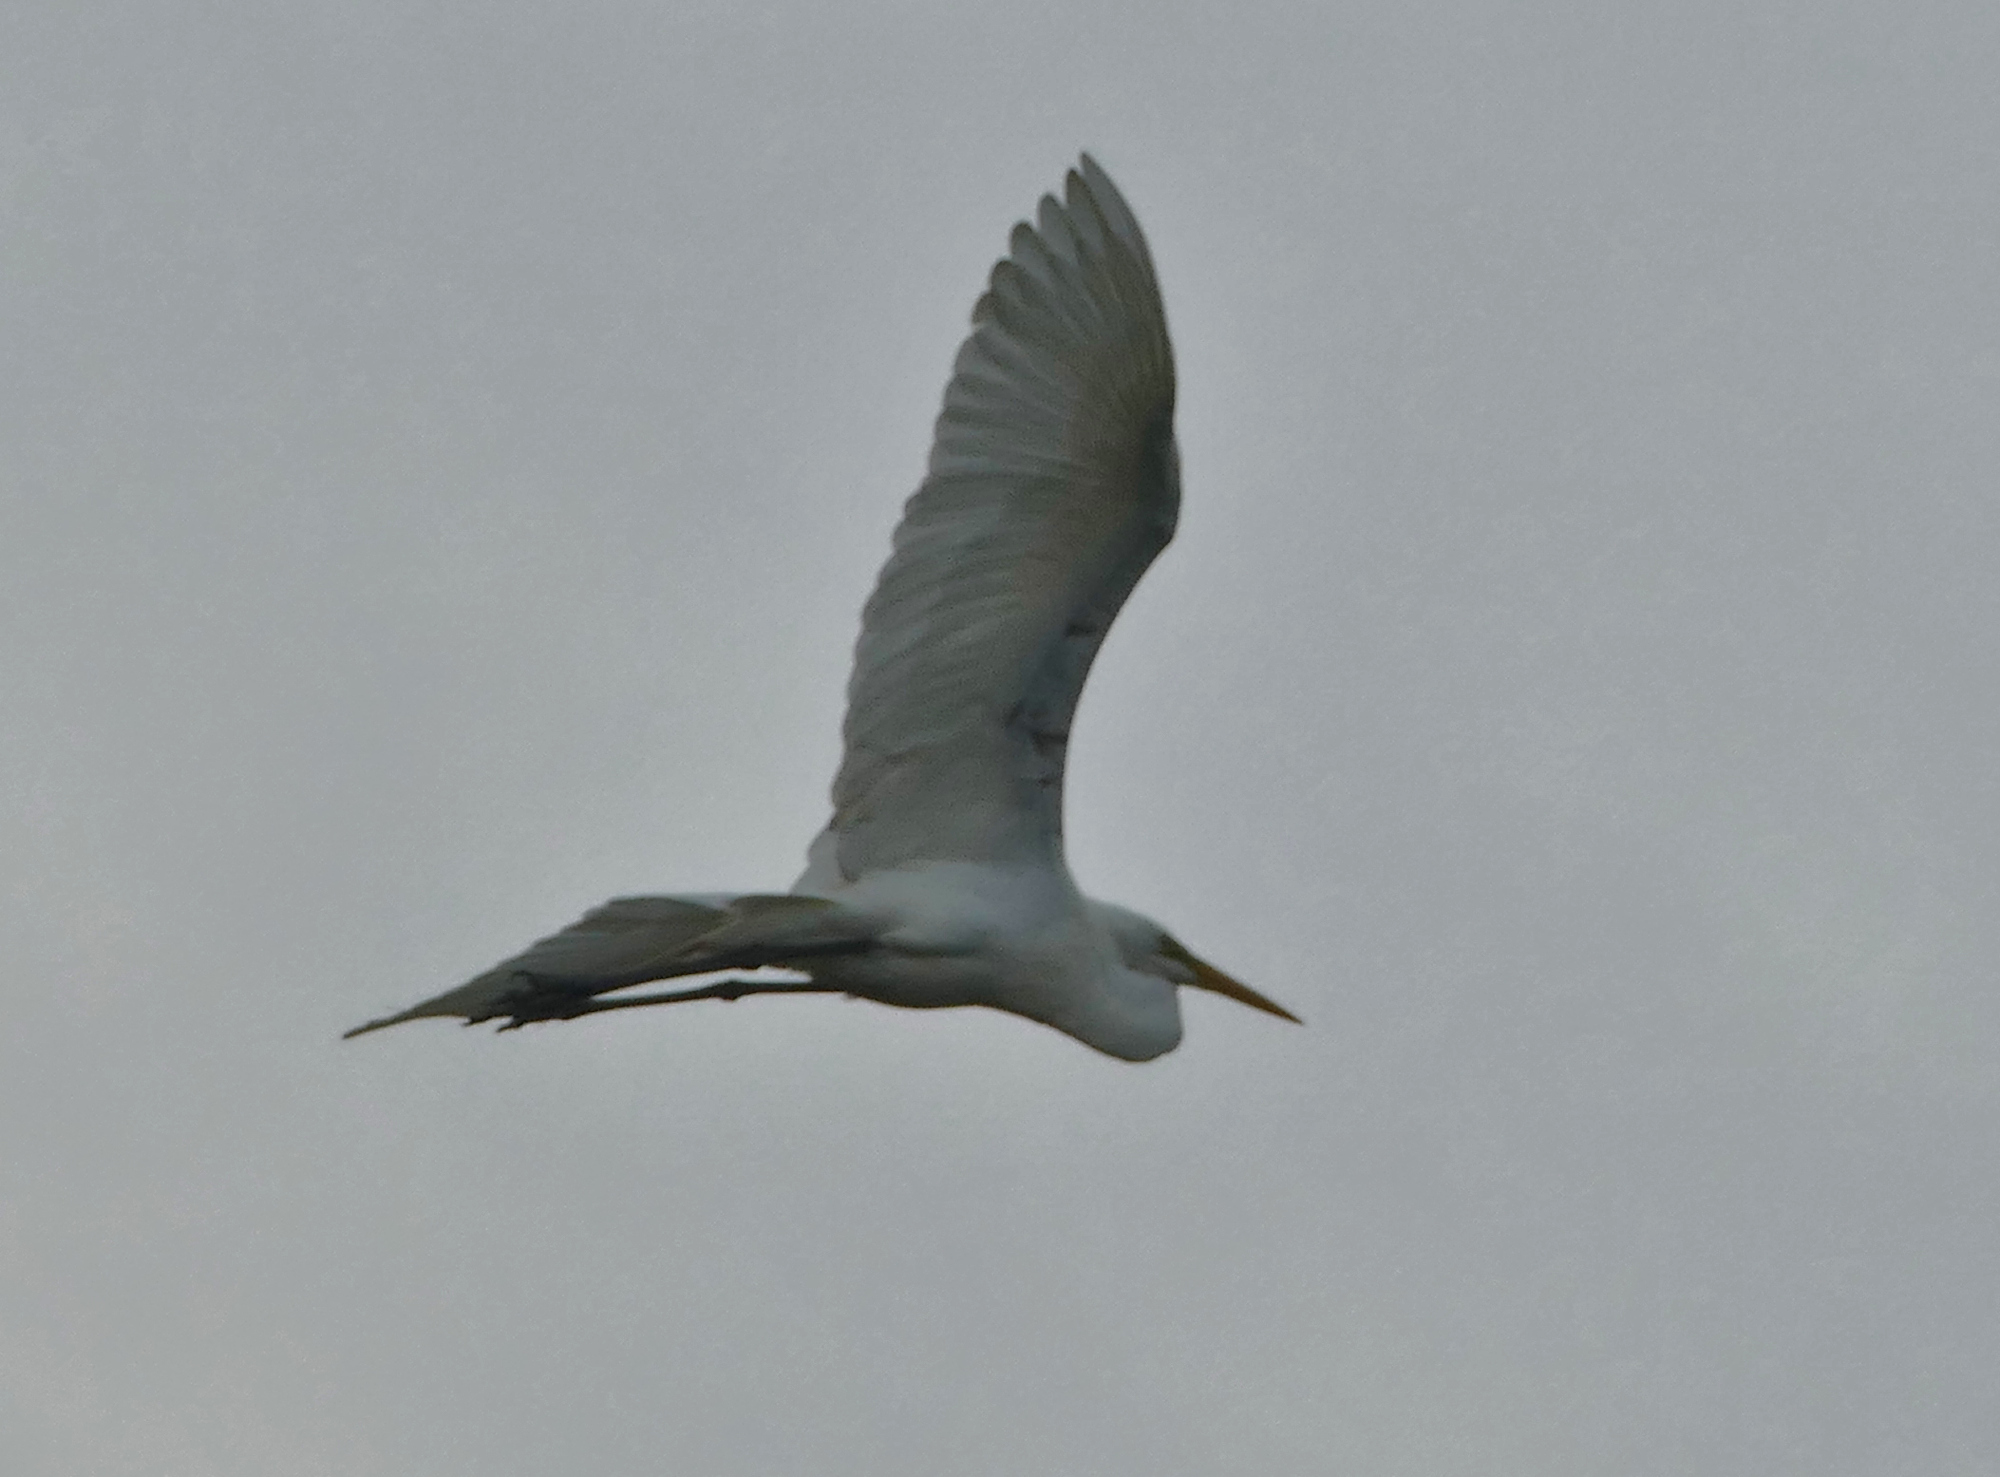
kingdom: Animalia
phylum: Chordata
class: Aves
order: Pelecaniformes
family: Ardeidae
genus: Ardea
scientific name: Ardea alba
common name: Great egret
